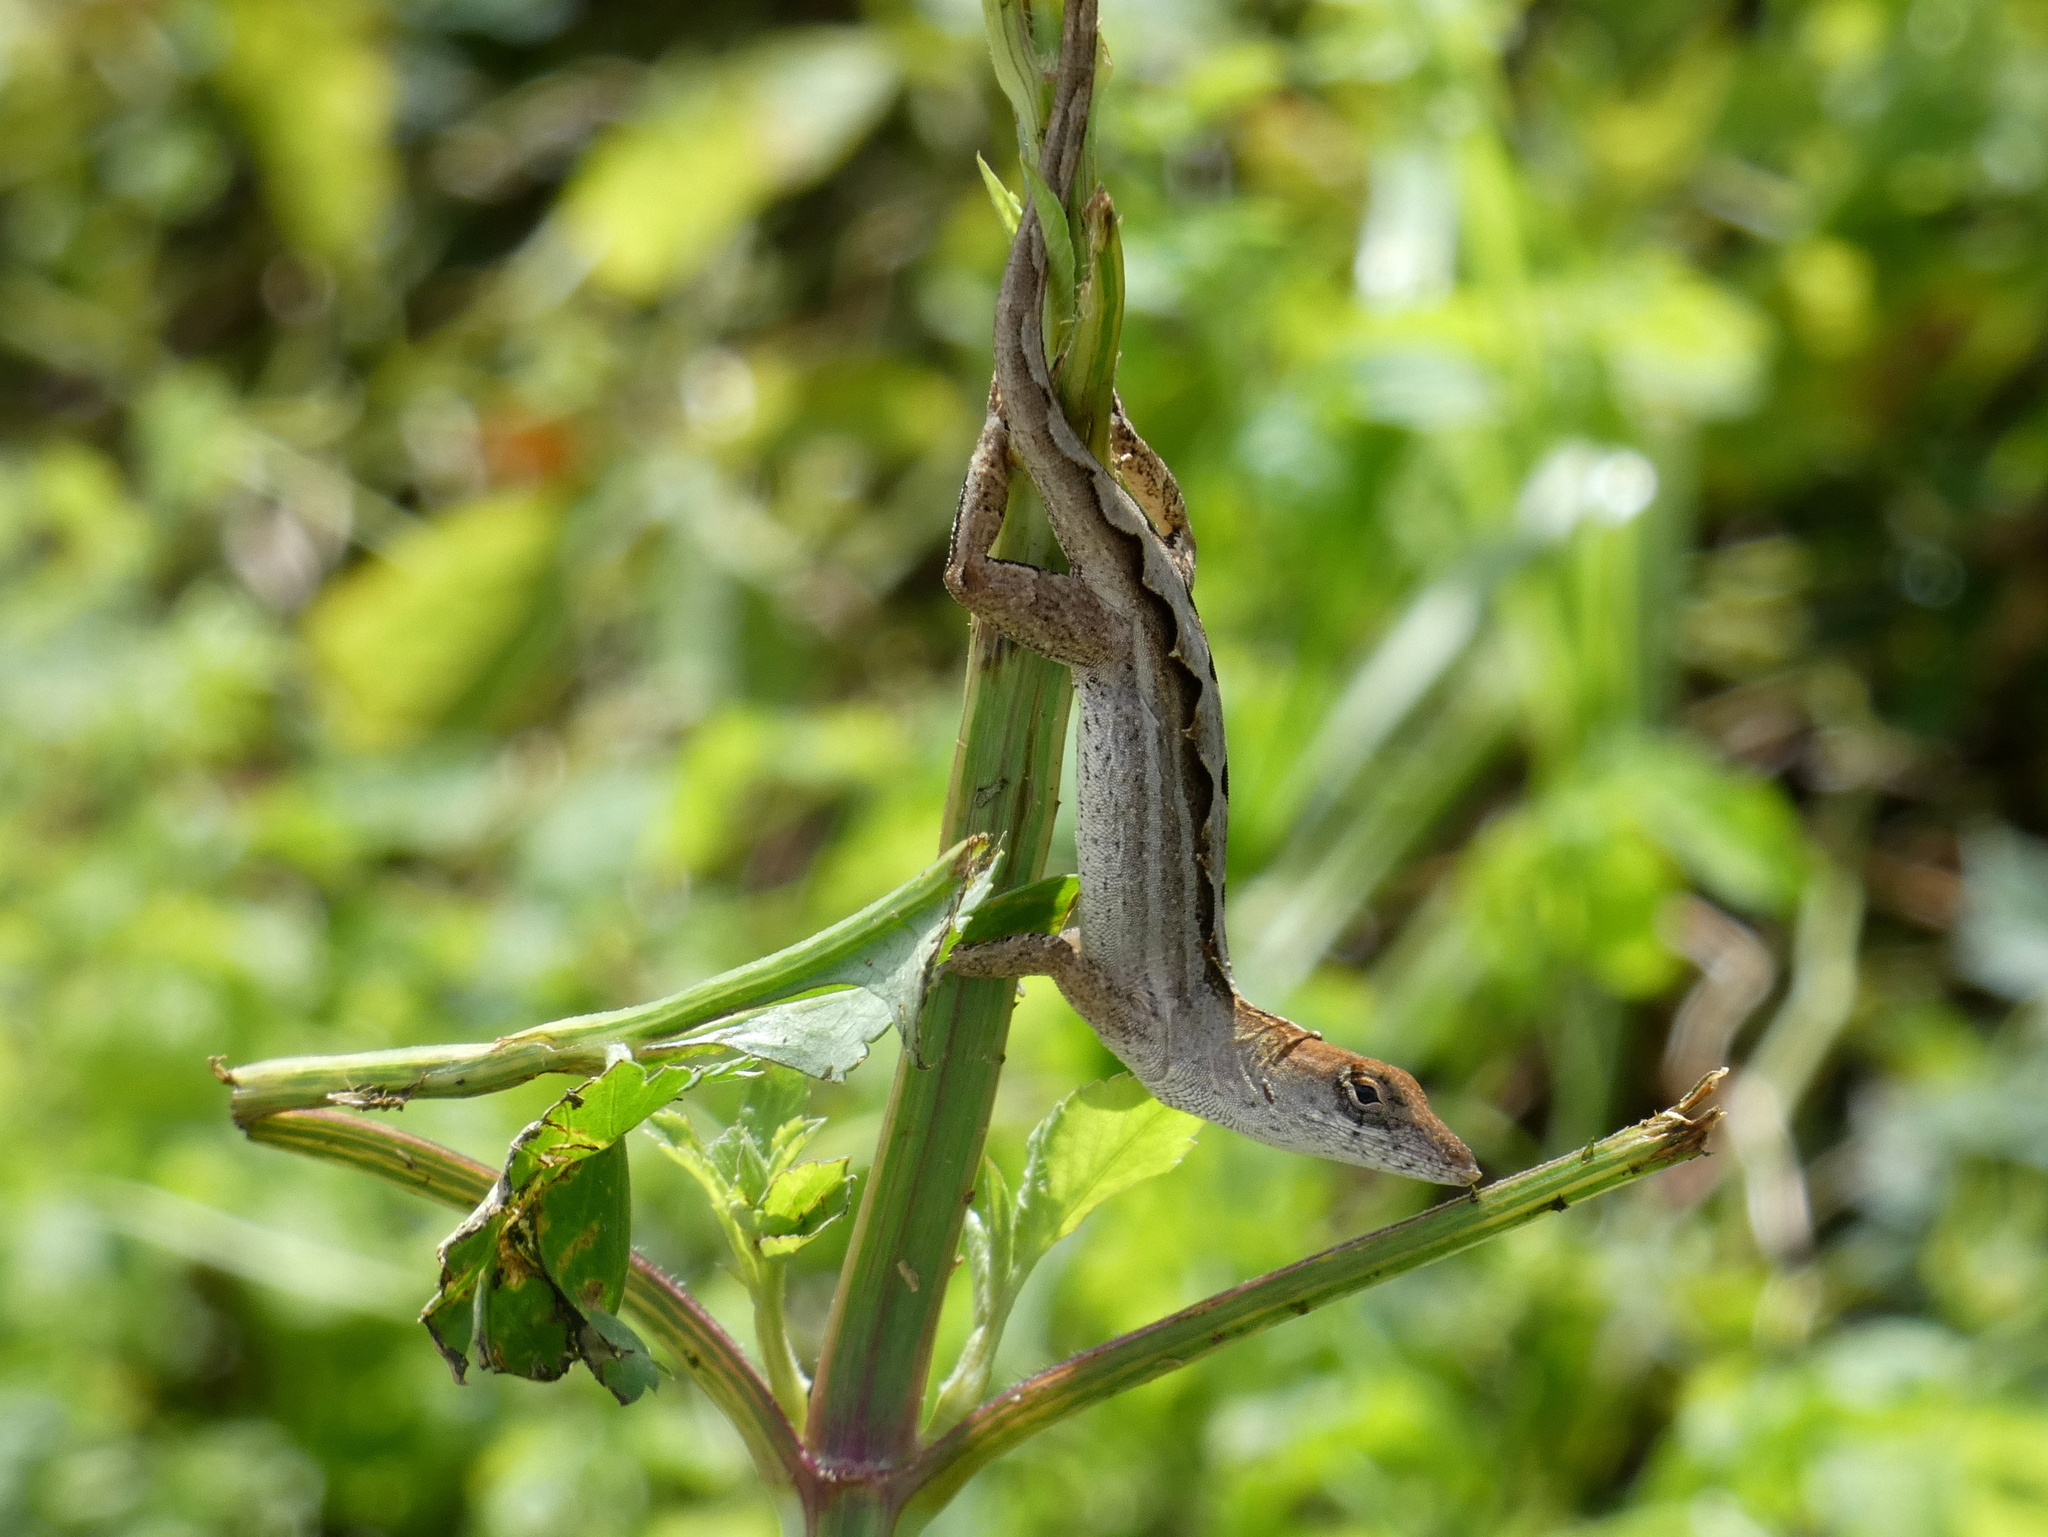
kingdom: Animalia
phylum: Chordata
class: Squamata
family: Dactyloidae
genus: Anolis
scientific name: Anolis sagrei
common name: Brown anole
